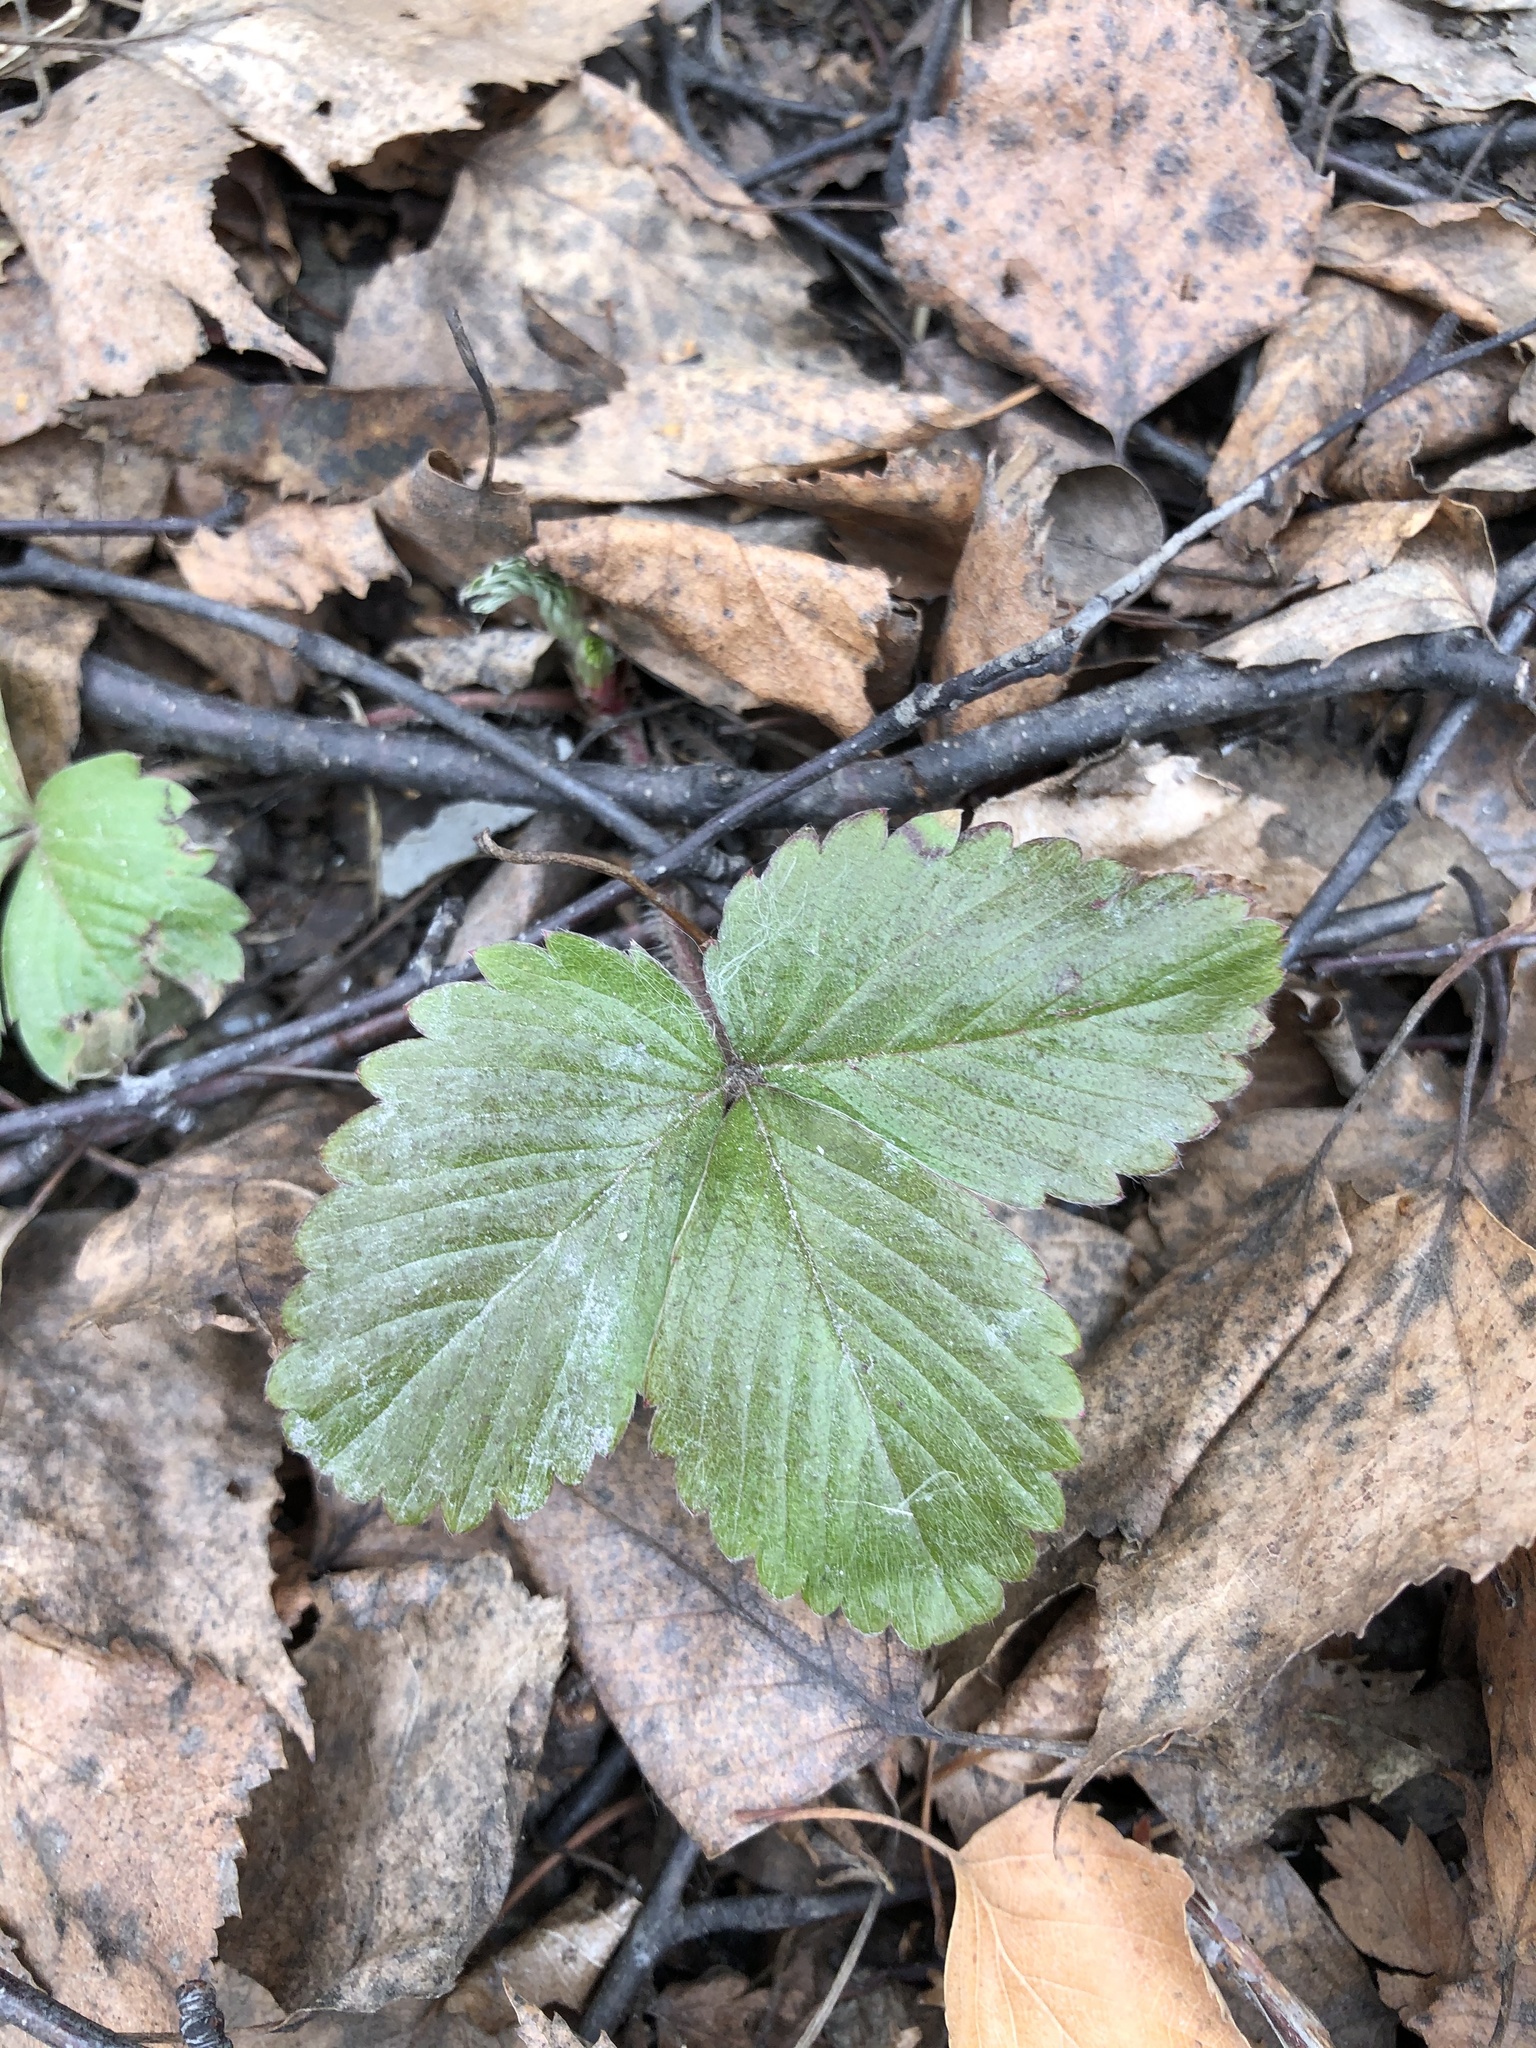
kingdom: Plantae
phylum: Tracheophyta
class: Magnoliopsida
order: Rosales
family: Rosaceae
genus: Fragaria
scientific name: Fragaria vesca
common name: Wild strawberry
